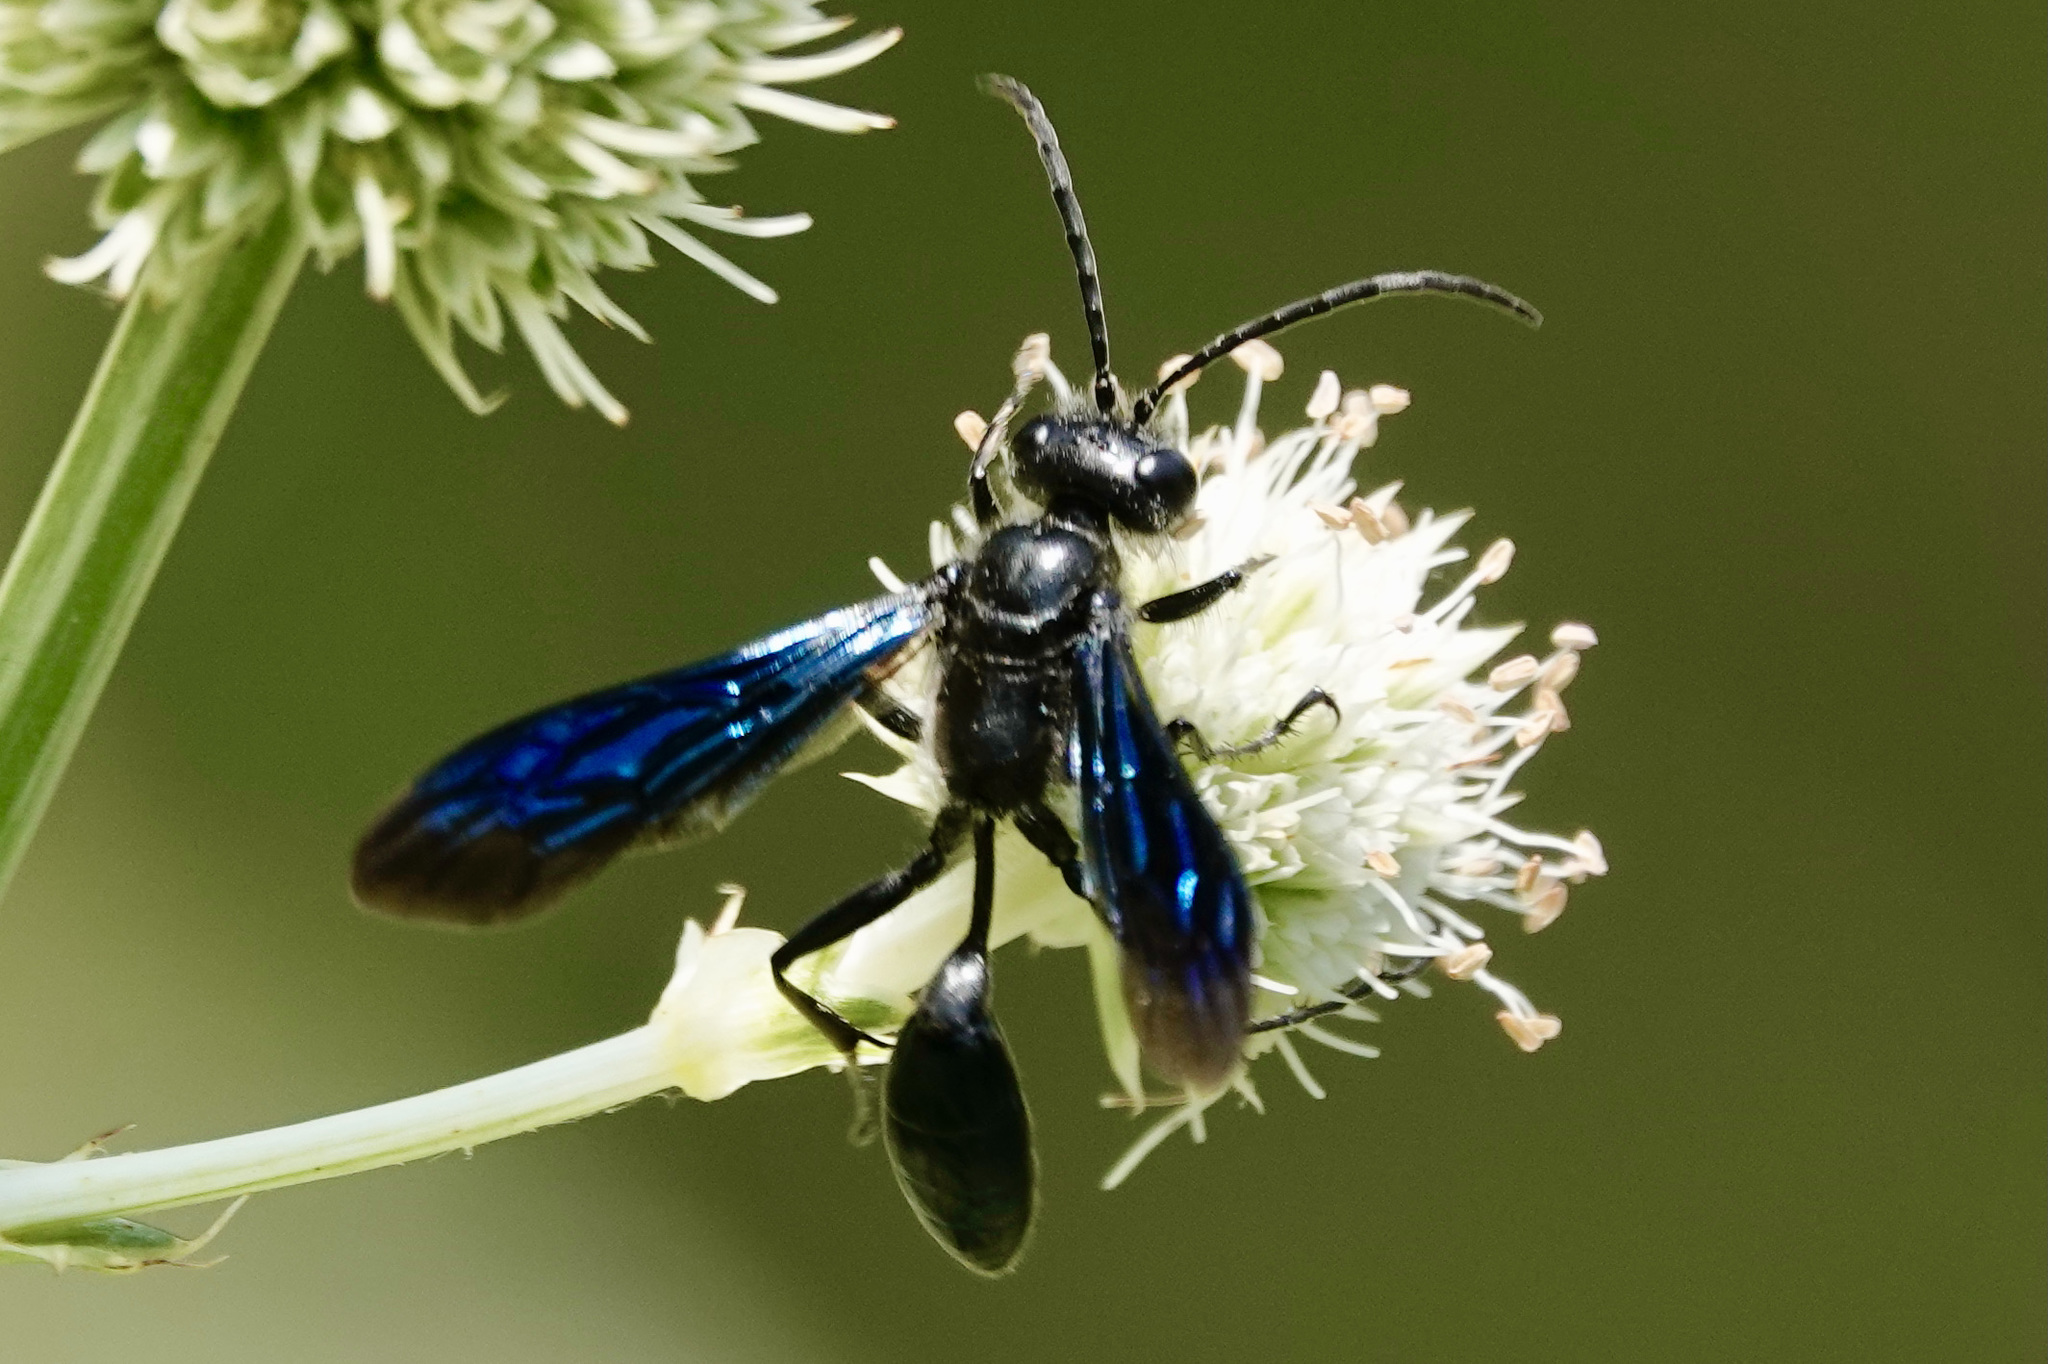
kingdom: Animalia
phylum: Arthropoda
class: Insecta
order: Hymenoptera
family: Sphecidae
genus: Isodontia
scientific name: Isodontia philadelphica
